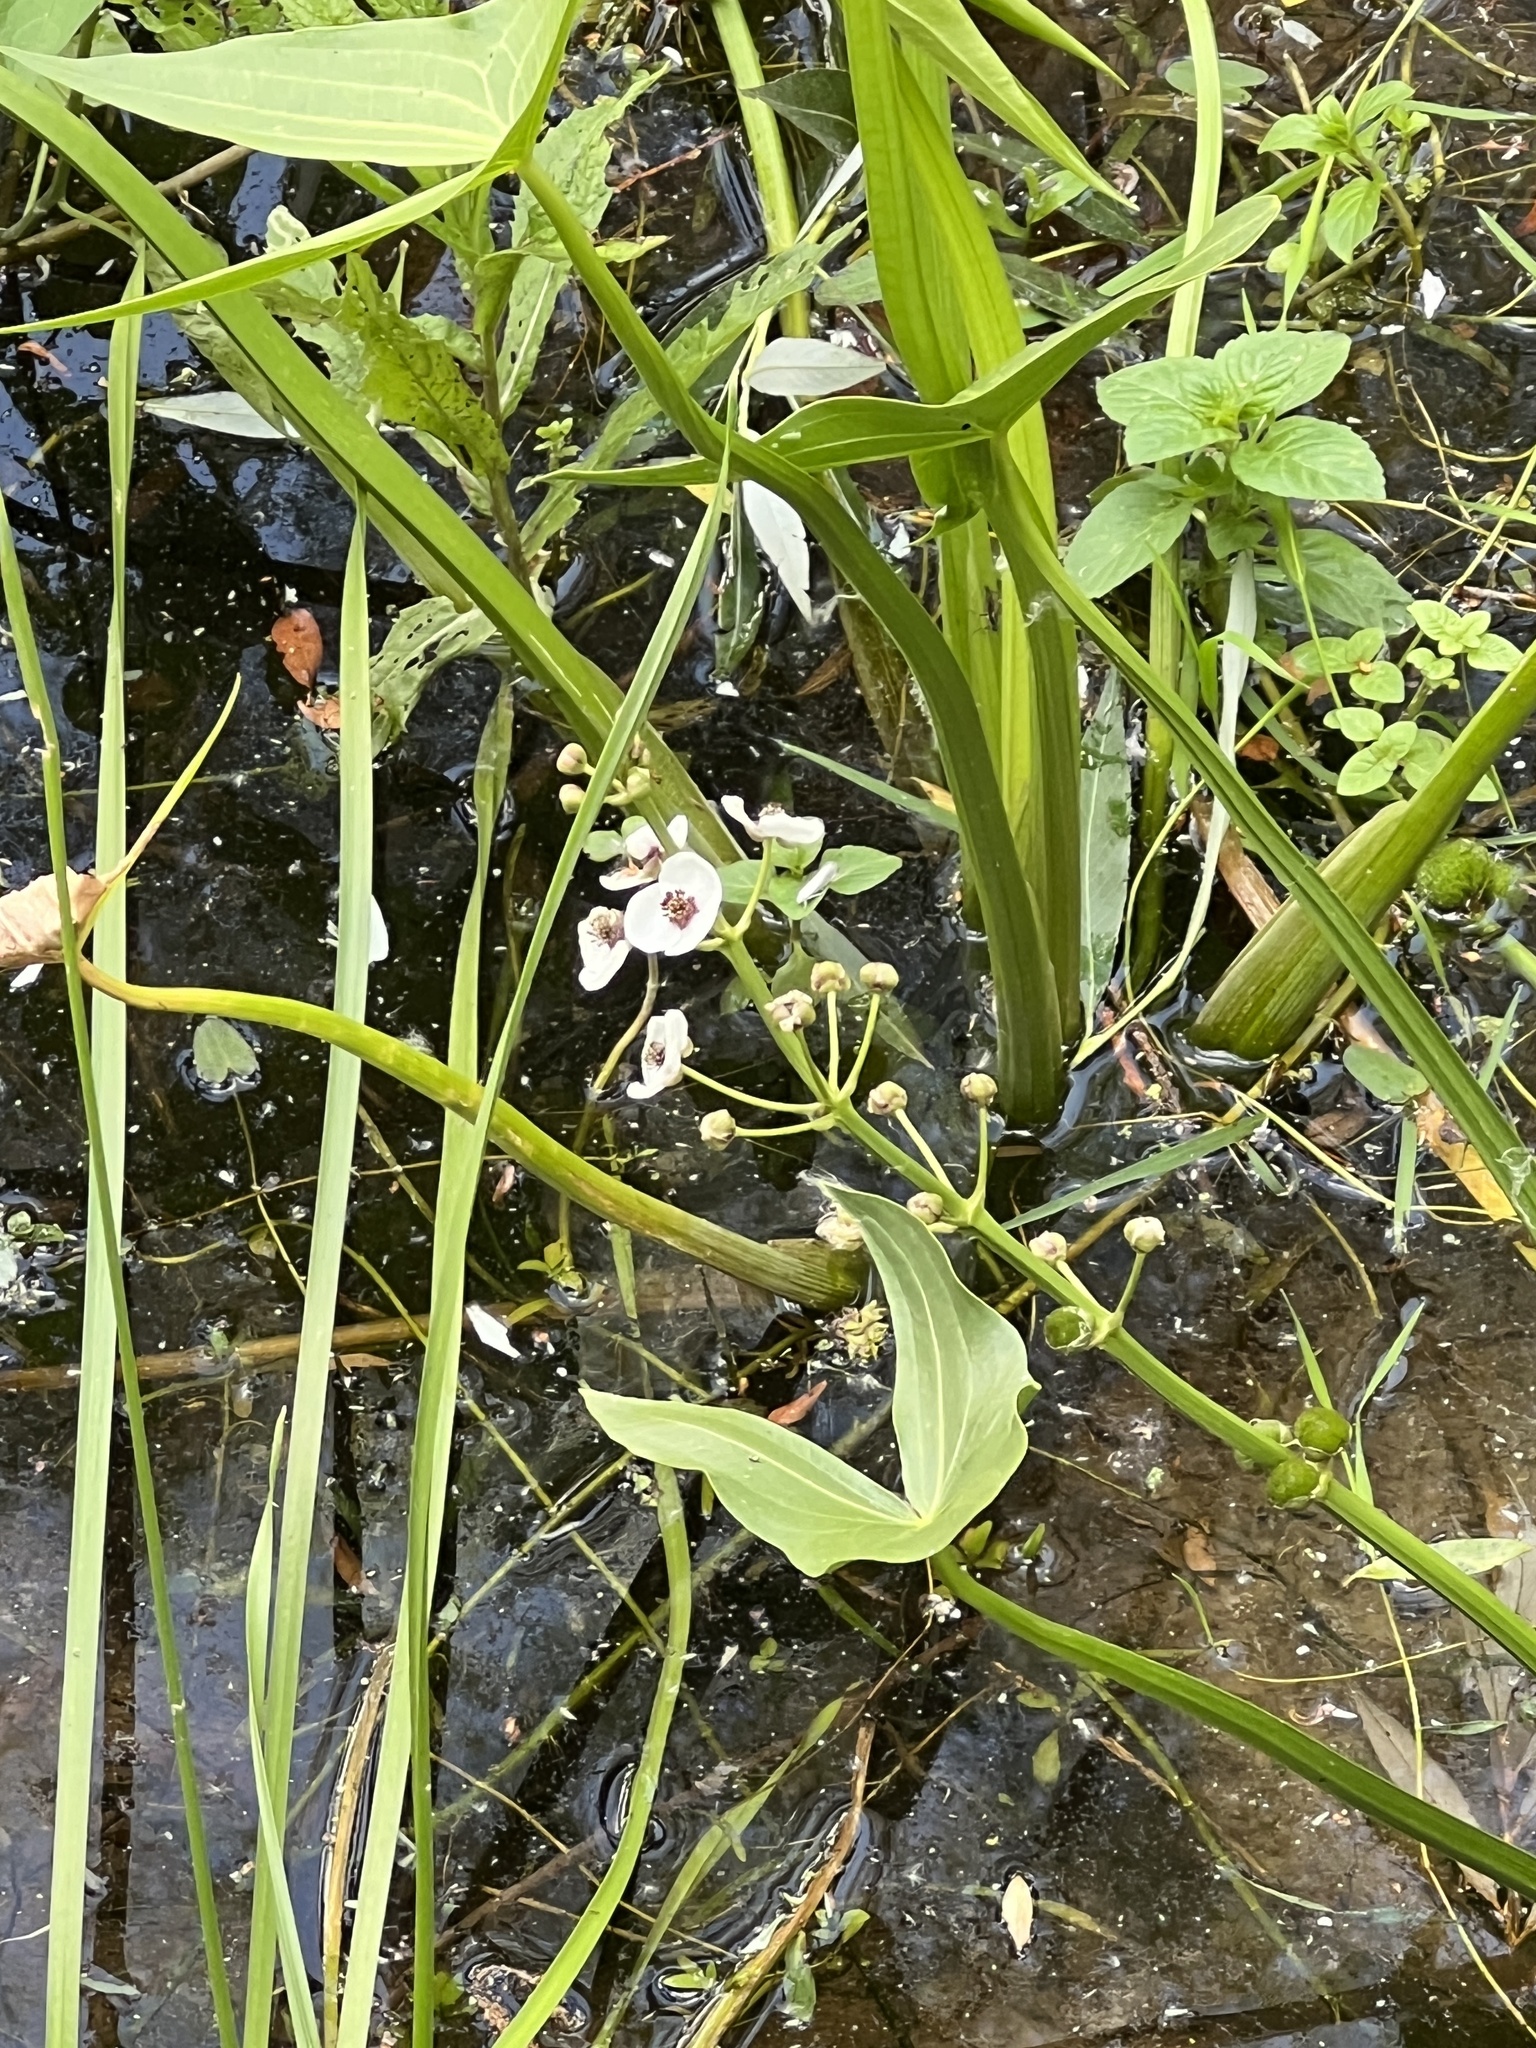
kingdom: Plantae
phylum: Tracheophyta
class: Liliopsida
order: Alismatales
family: Alismataceae
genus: Sagittaria
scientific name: Sagittaria sagittifolia
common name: Arrowhead
